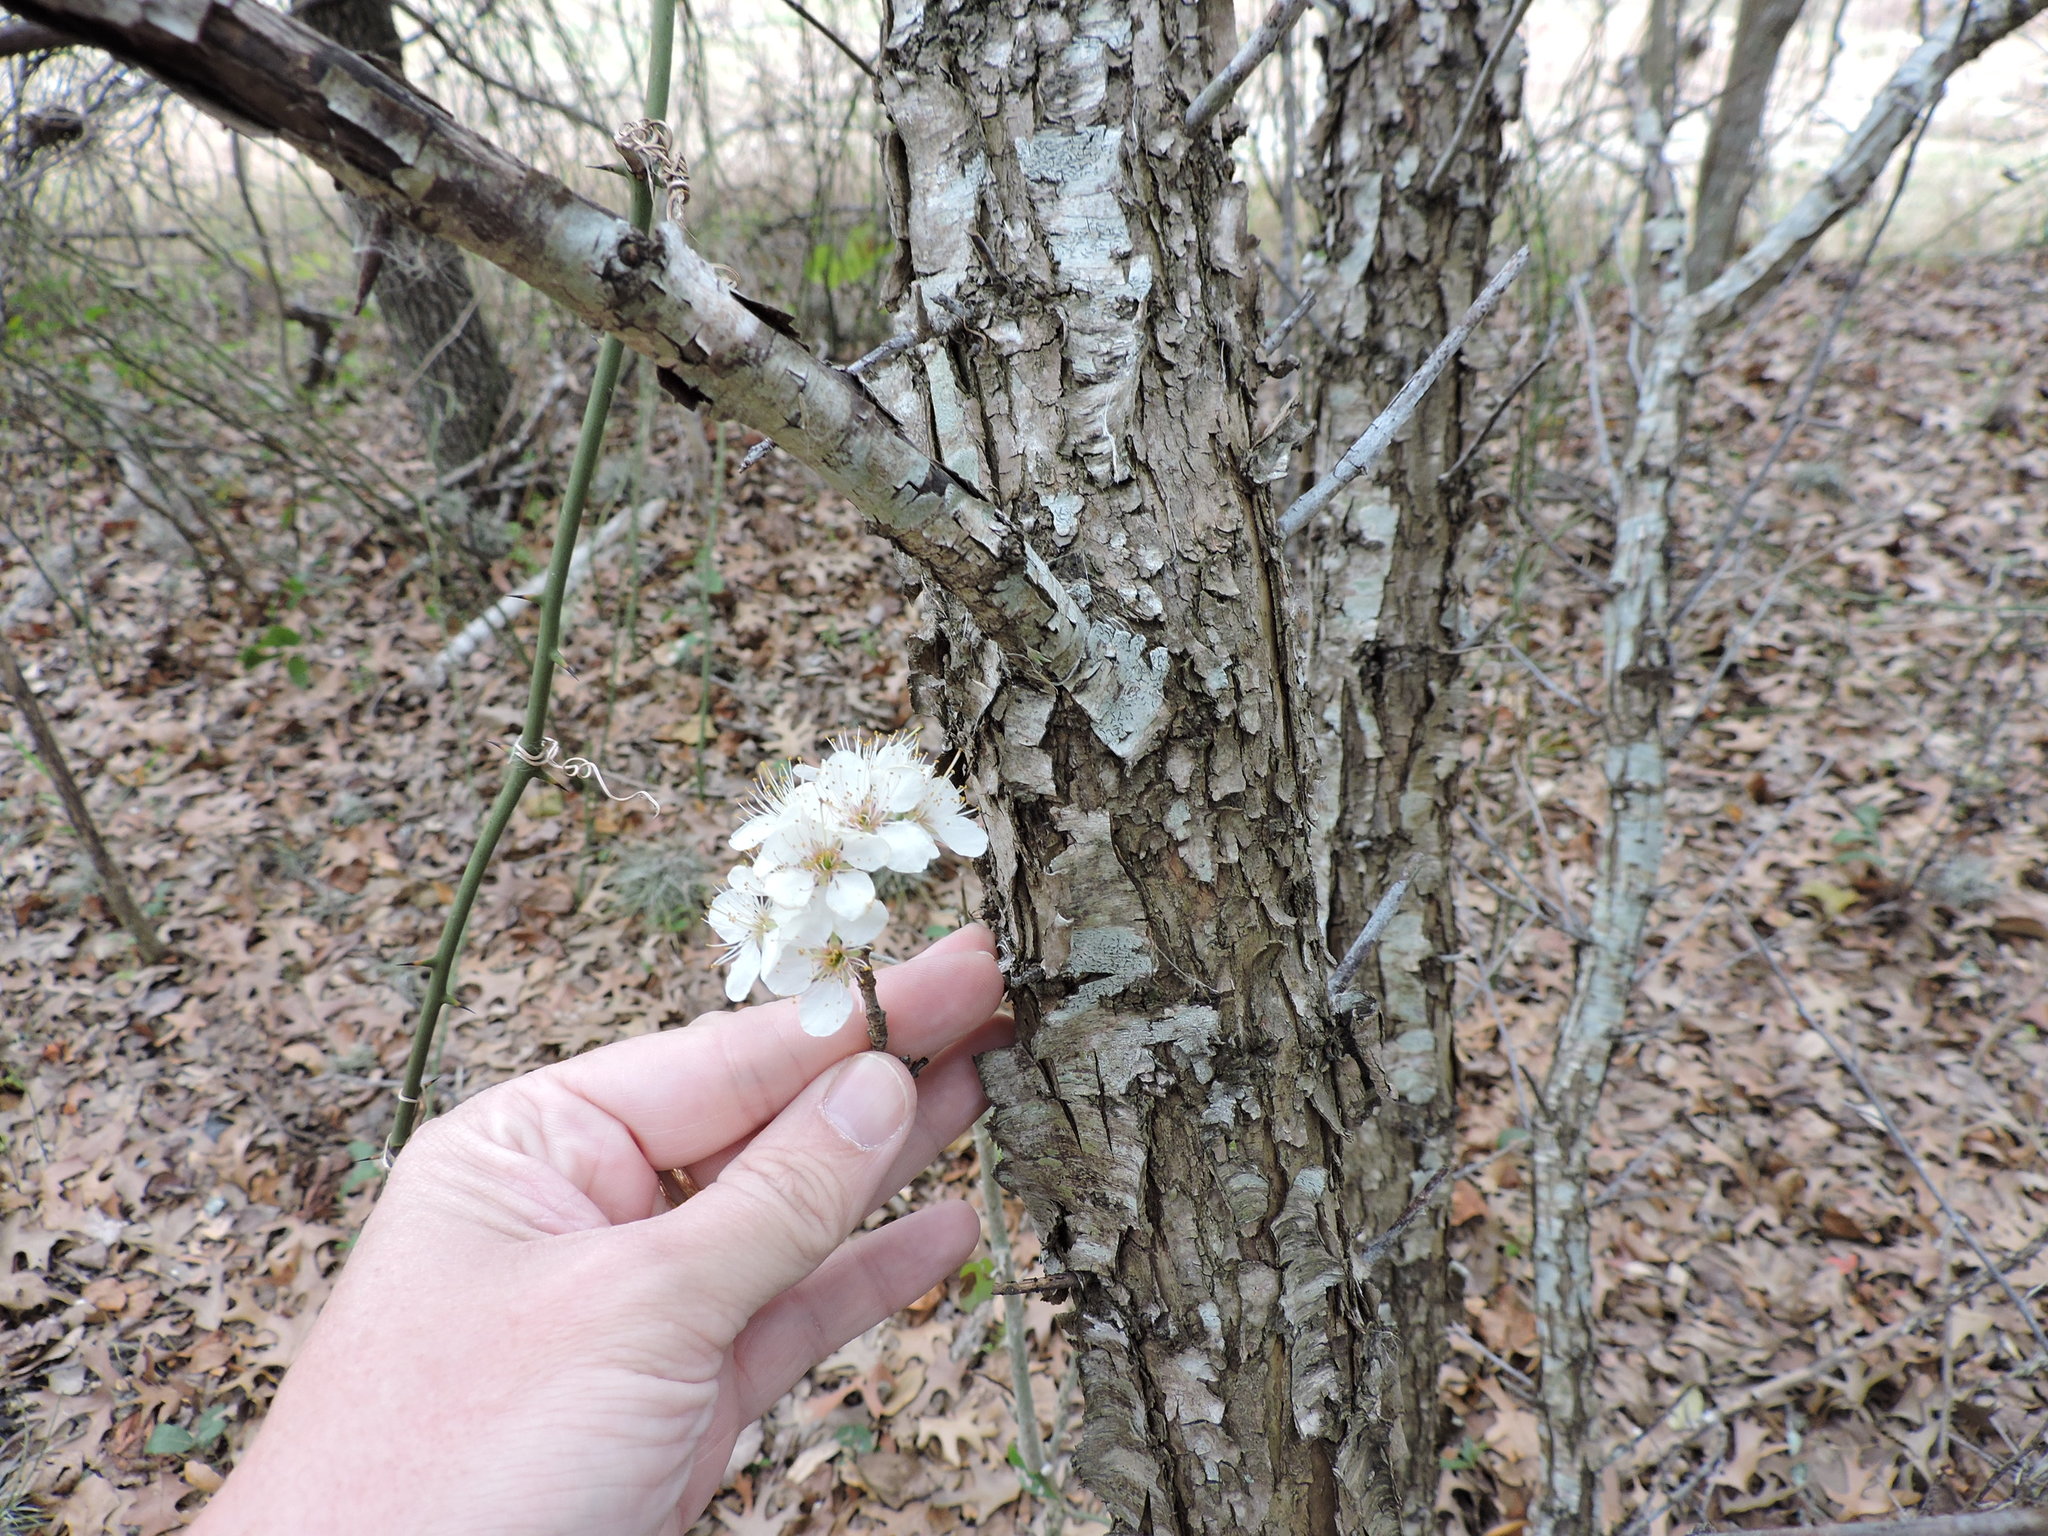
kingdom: Plantae
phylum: Tracheophyta
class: Magnoliopsida
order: Rosales
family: Rosaceae
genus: Prunus
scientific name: Prunus mexicana
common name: Mexican plum
